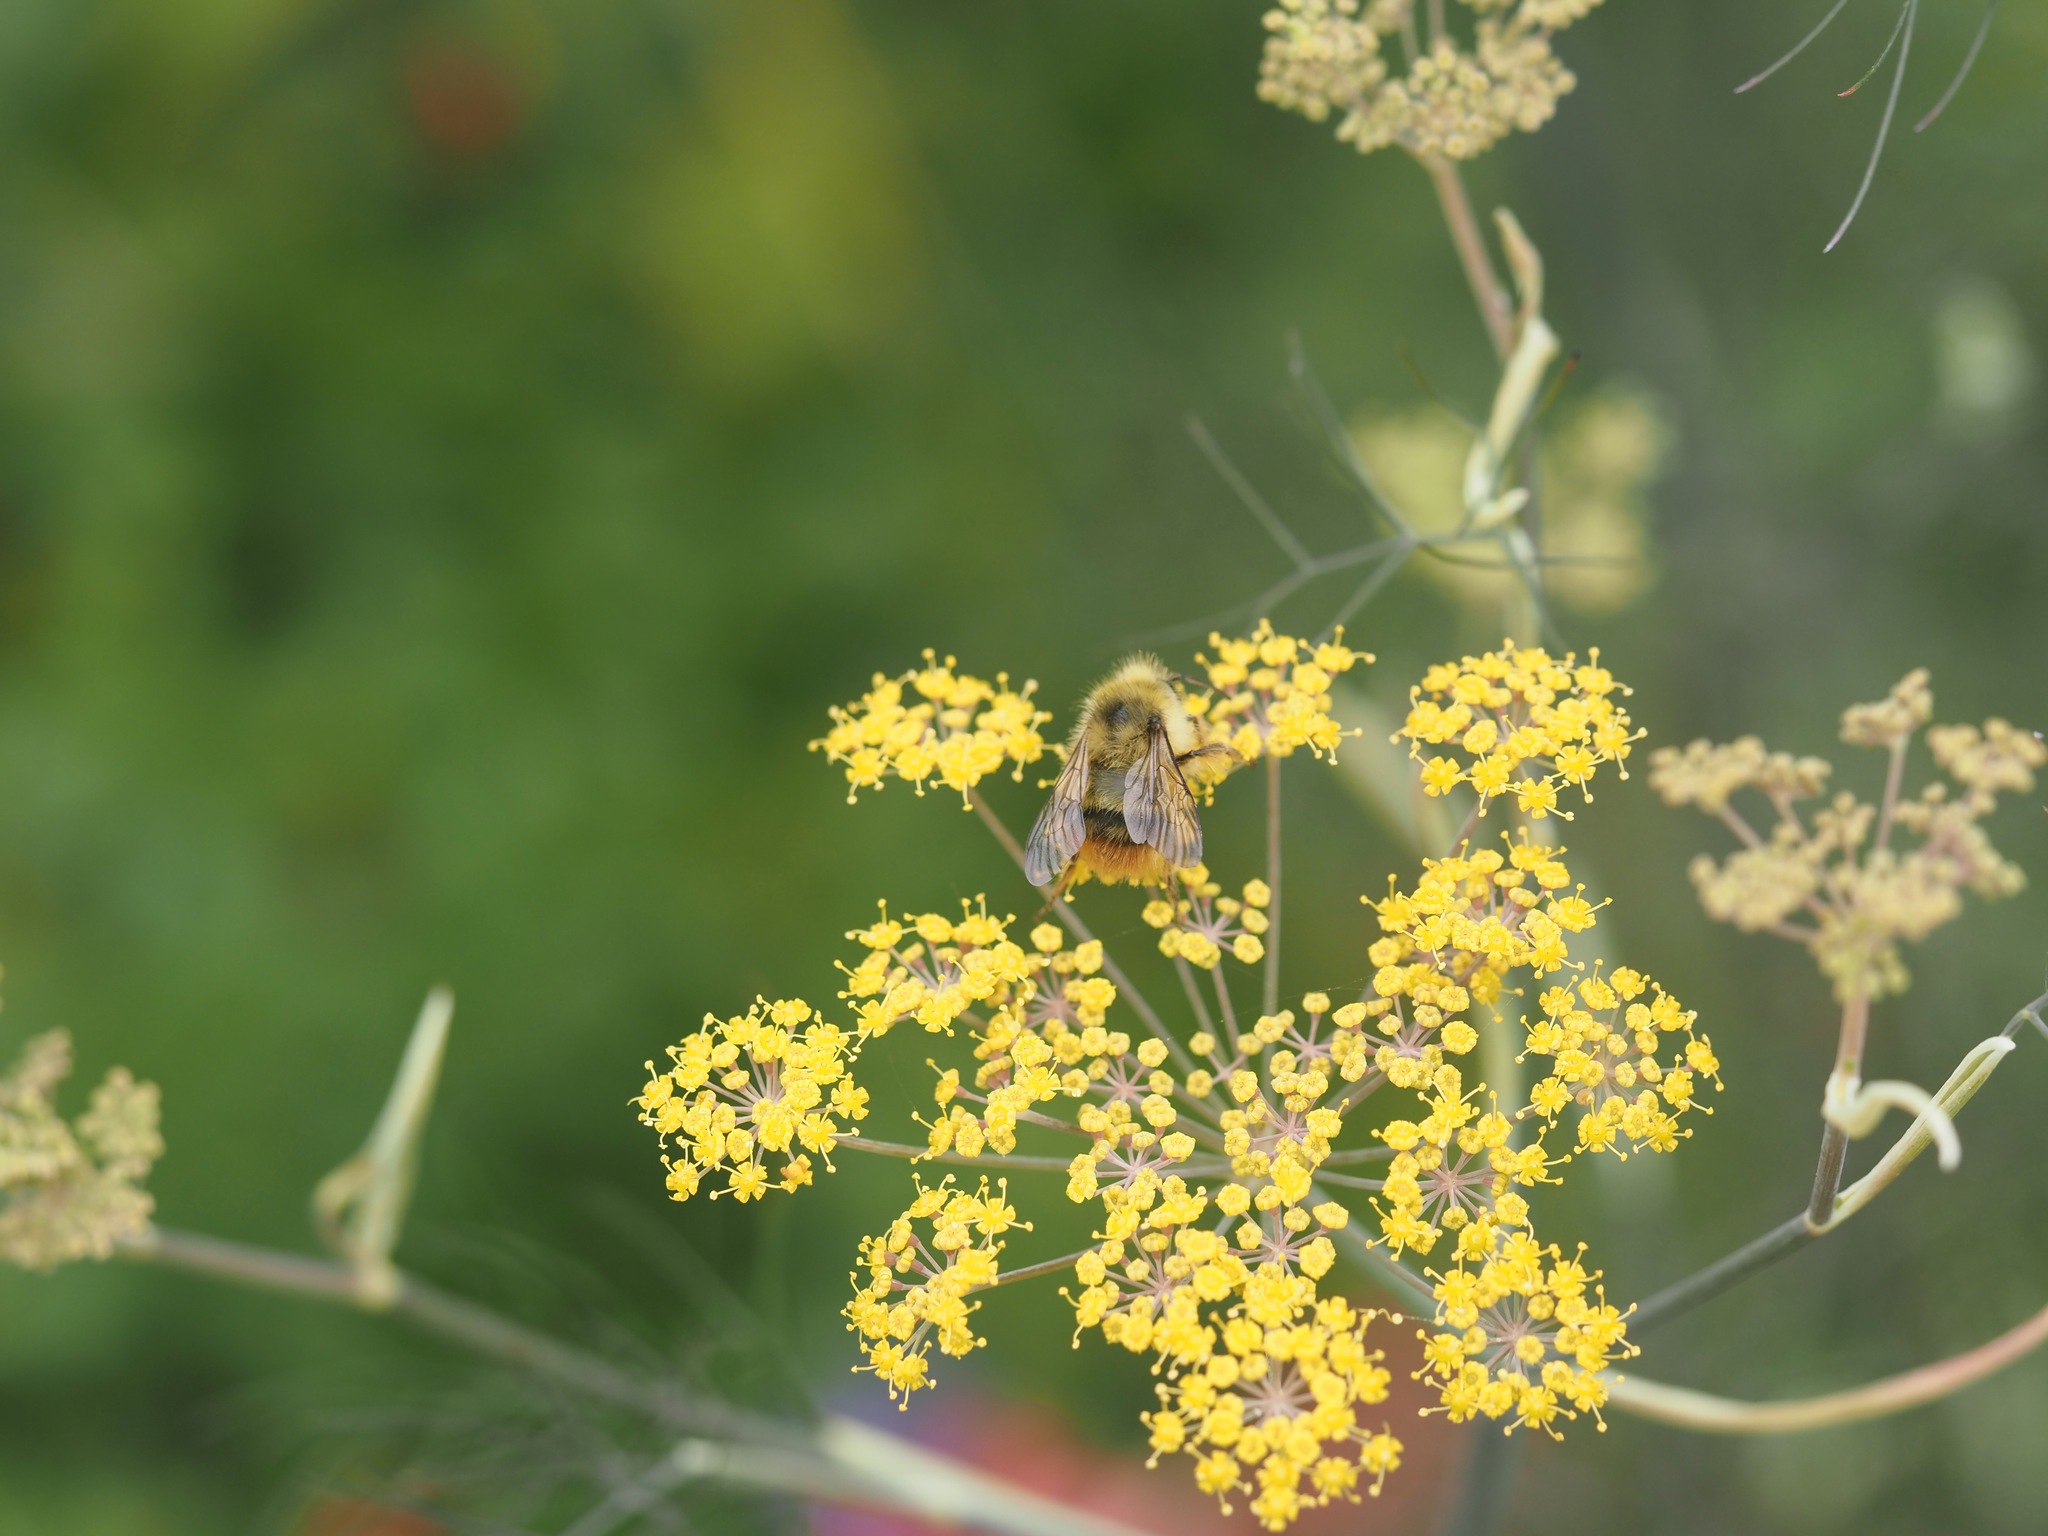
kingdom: Animalia
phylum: Arthropoda
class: Insecta
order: Hymenoptera
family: Apidae
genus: Bombus
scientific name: Bombus mixtus
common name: Fuzzy-horned bumble bee
